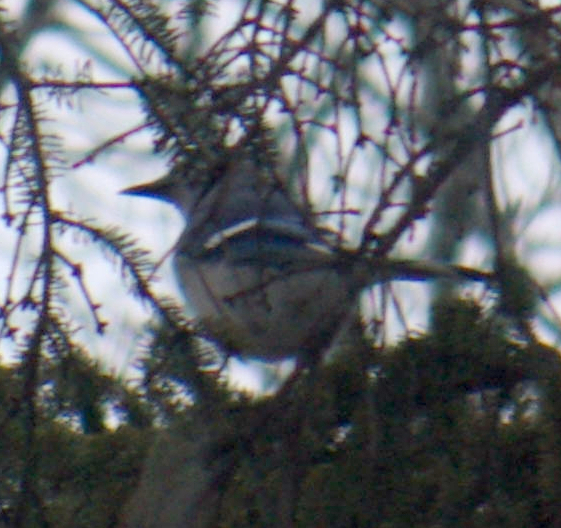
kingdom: Animalia
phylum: Chordata
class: Aves
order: Passeriformes
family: Corvidae
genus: Cyanocitta
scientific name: Cyanocitta cristata
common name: Blue jay
